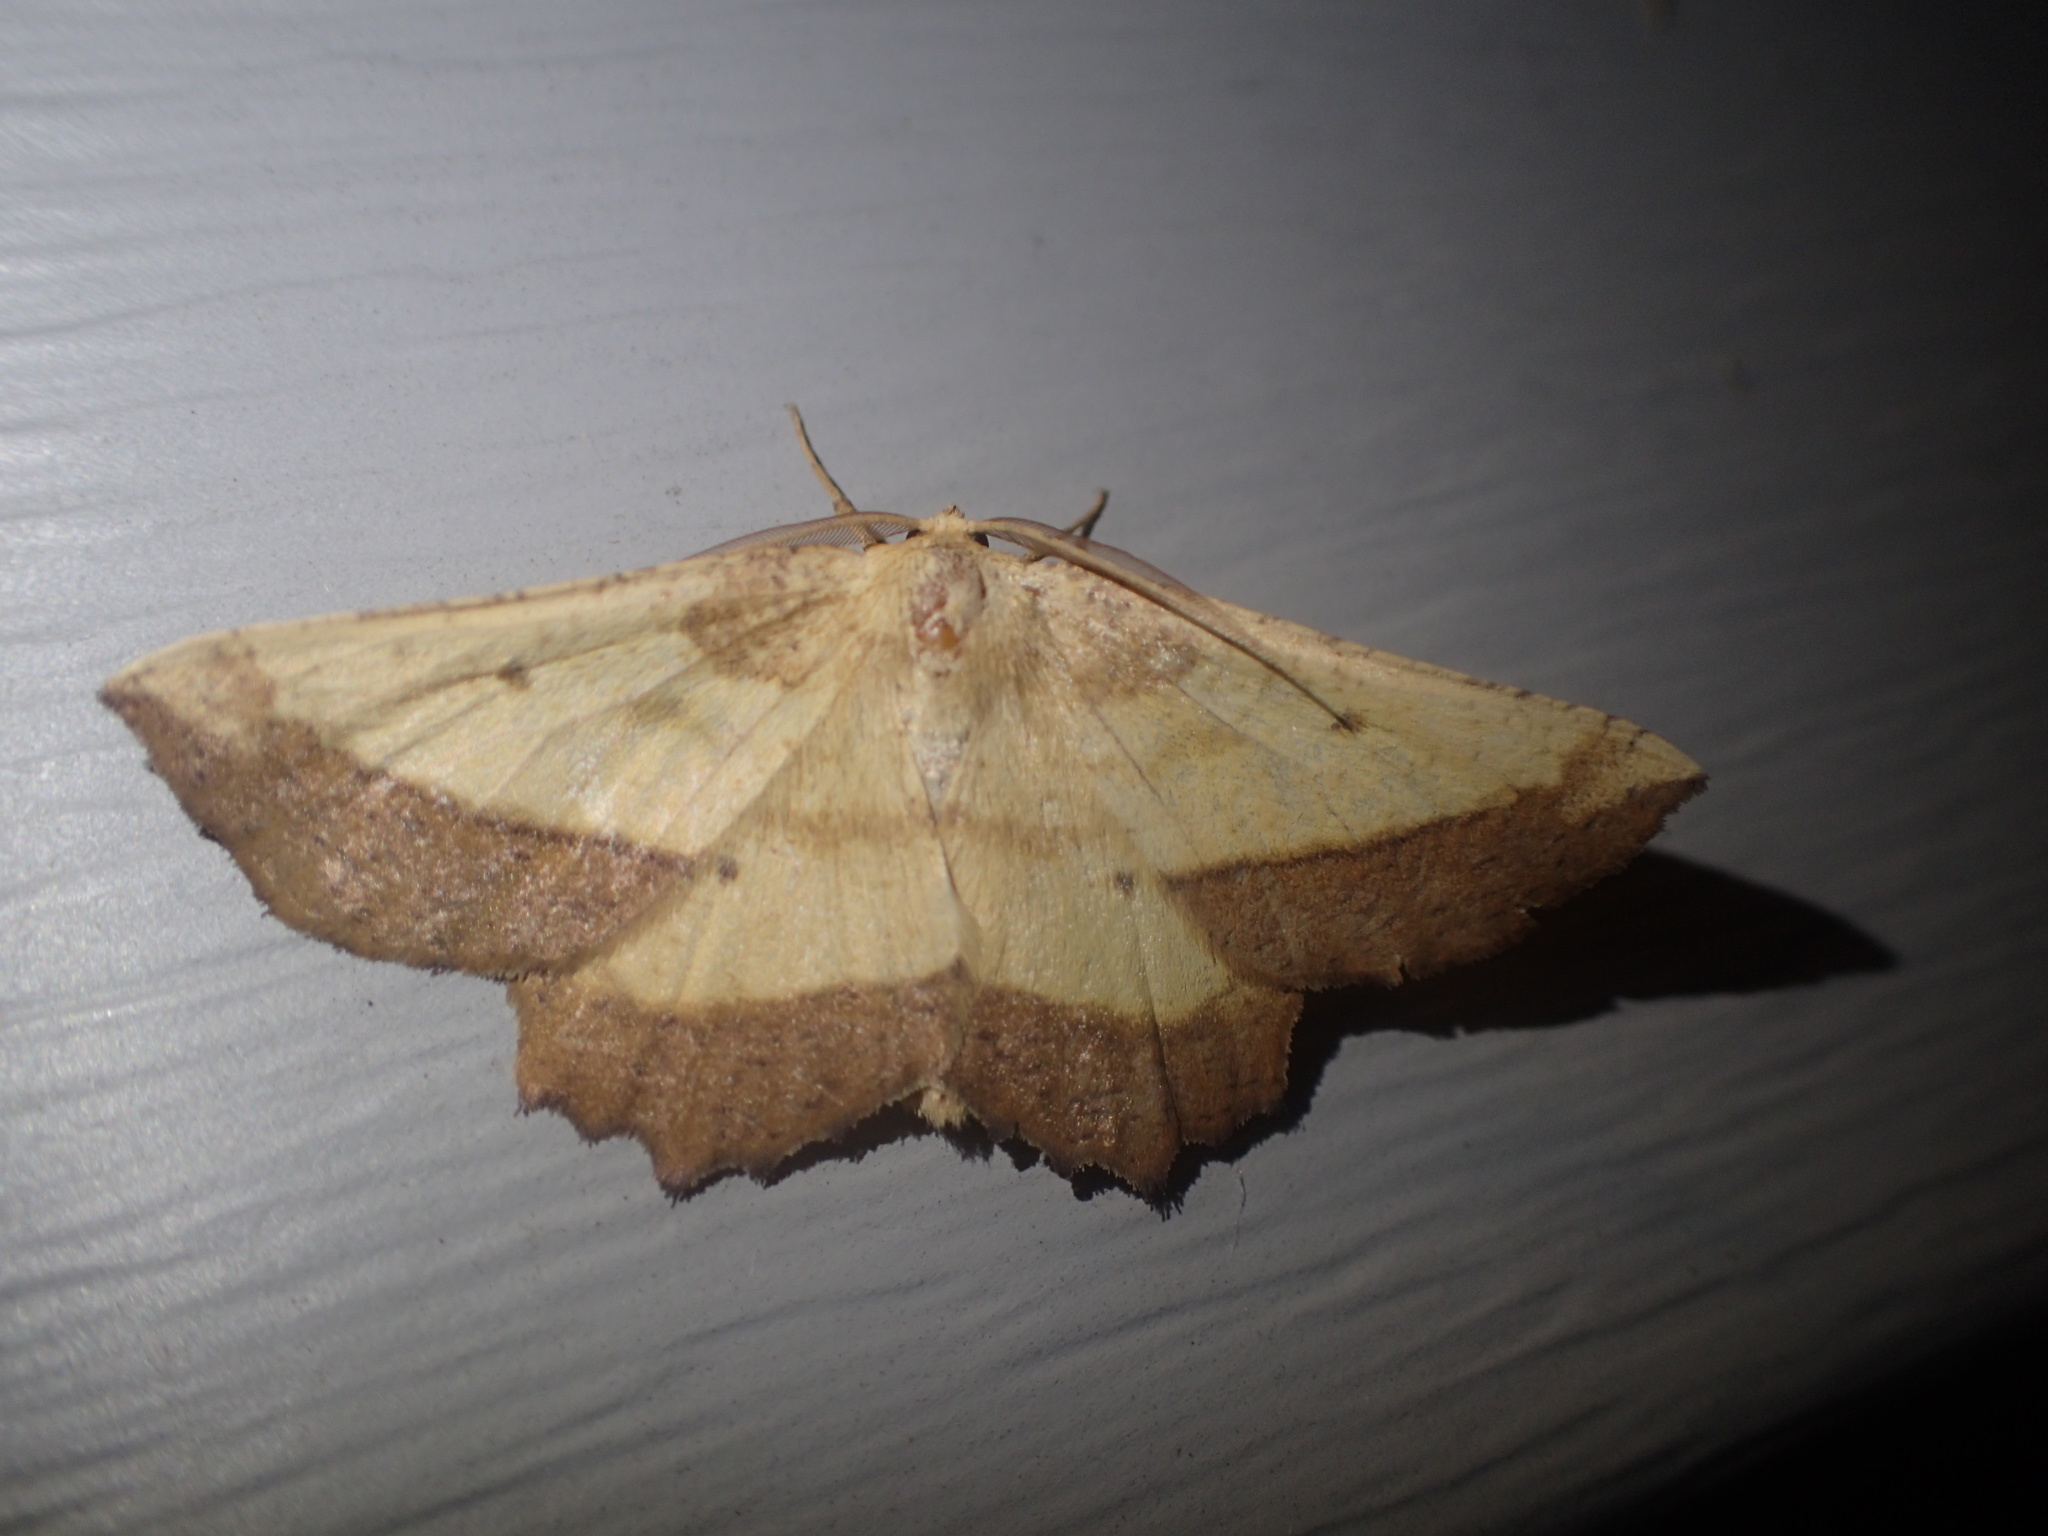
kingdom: Animalia
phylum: Arthropoda
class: Insecta
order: Lepidoptera
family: Geometridae
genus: Euchlaena
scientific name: Euchlaena serrata
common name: Saw wing
